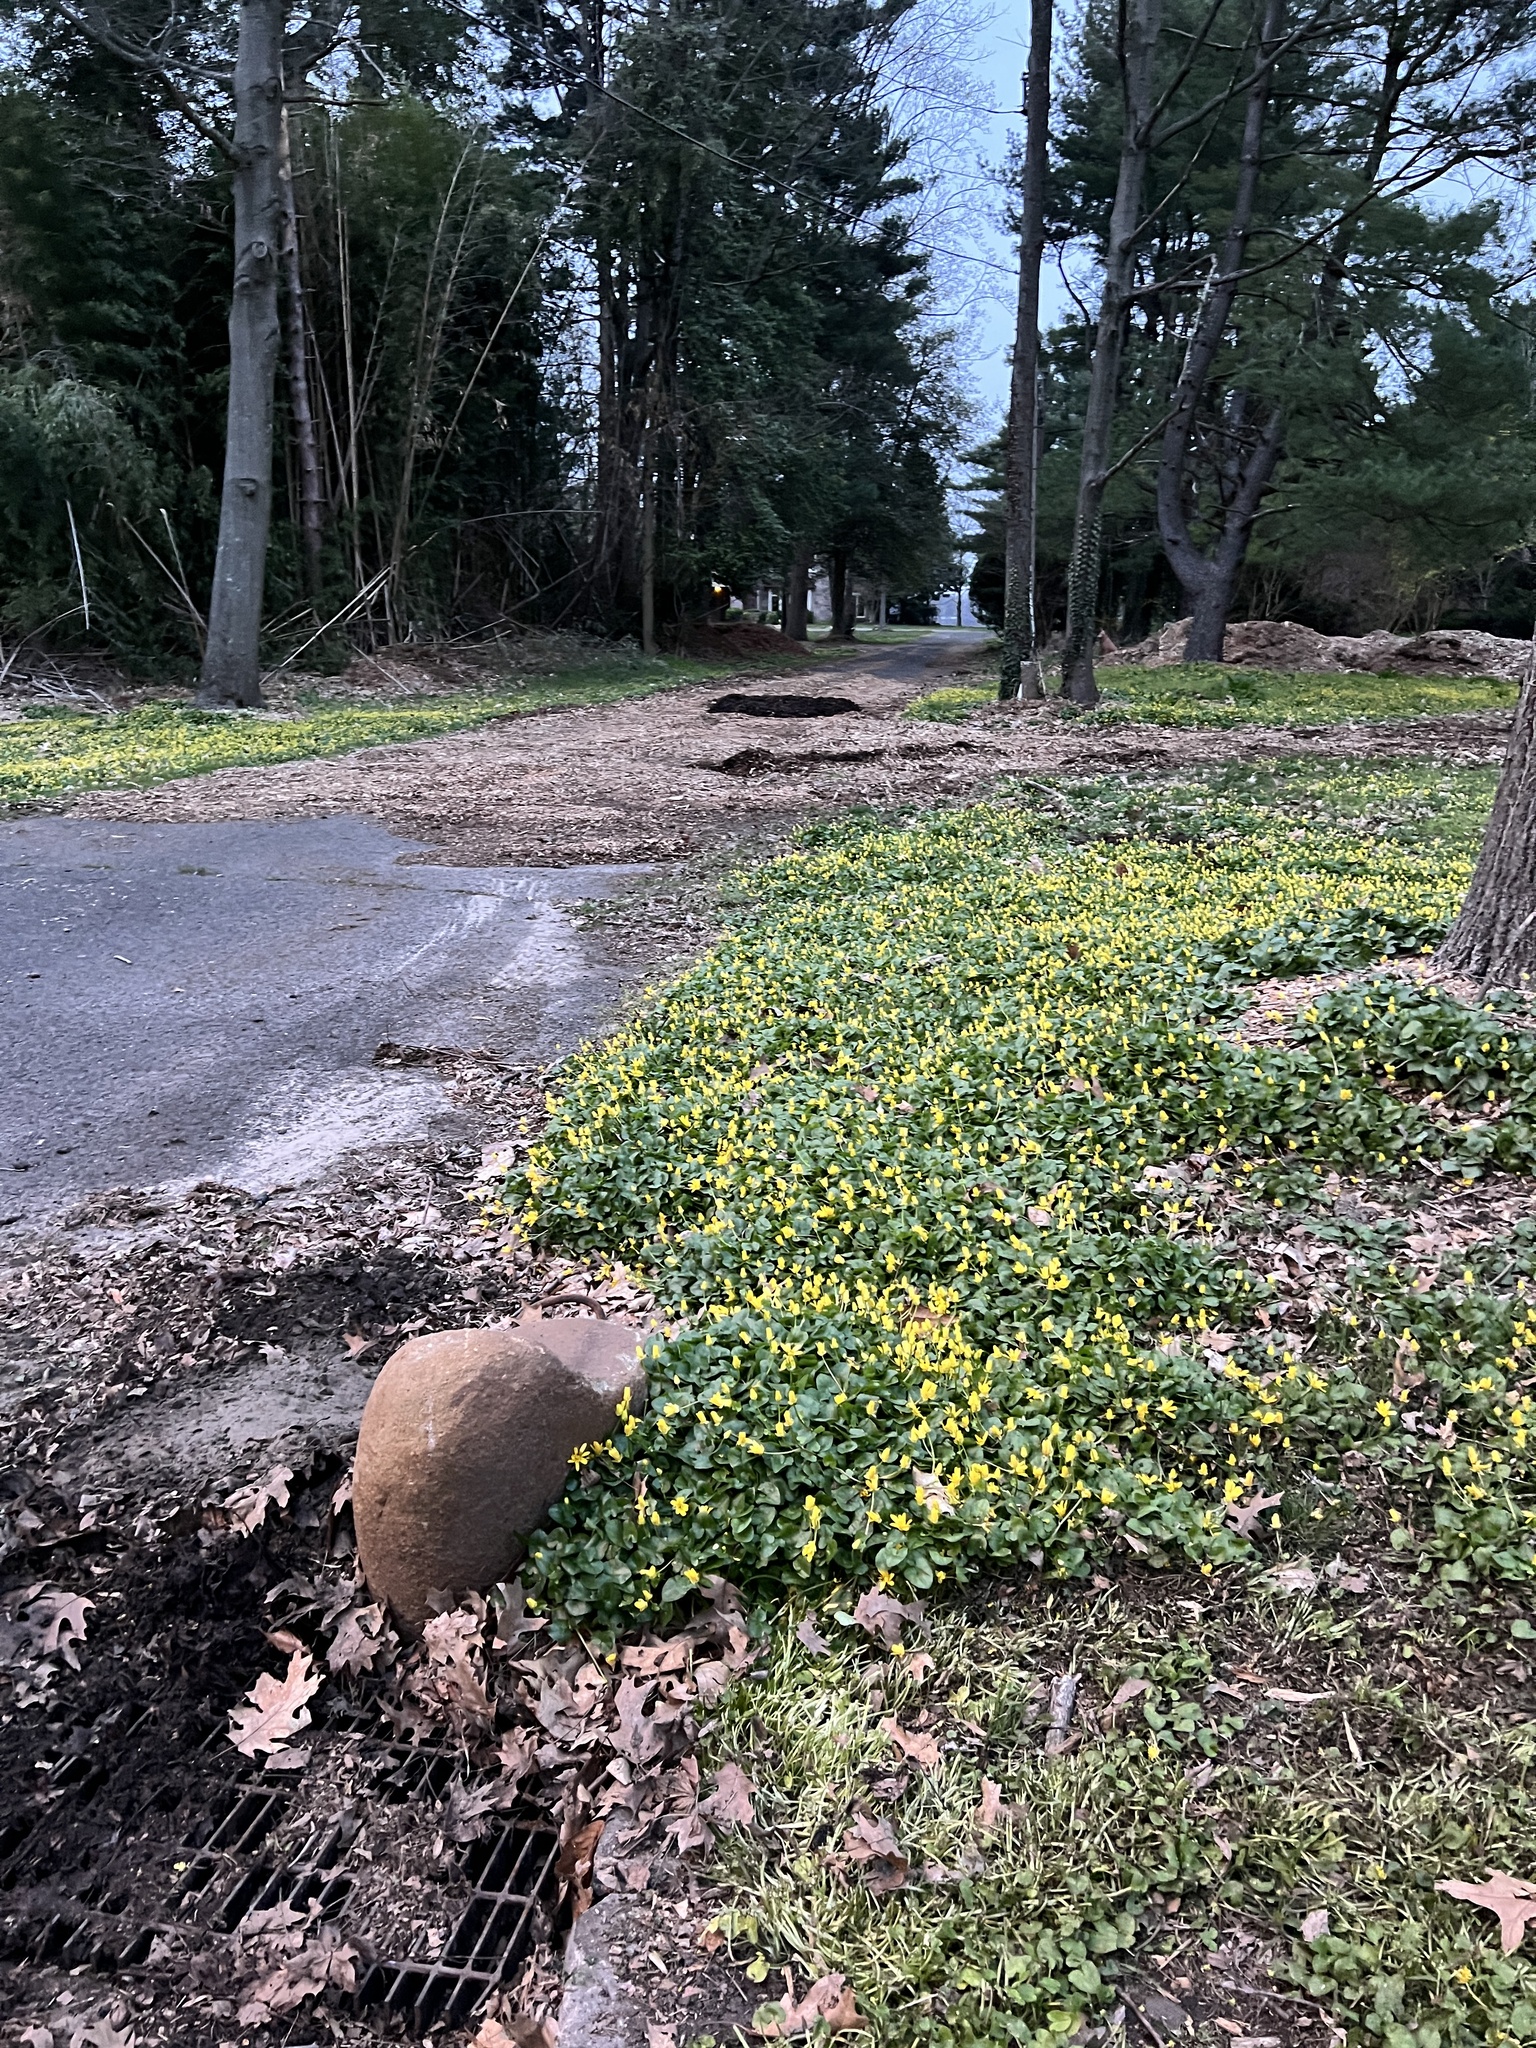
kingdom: Plantae
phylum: Tracheophyta
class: Magnoliopsida
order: Ranunculales
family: Ranunculaceae
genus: Ficaria
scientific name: Ficaria verna
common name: Lesser celandine
